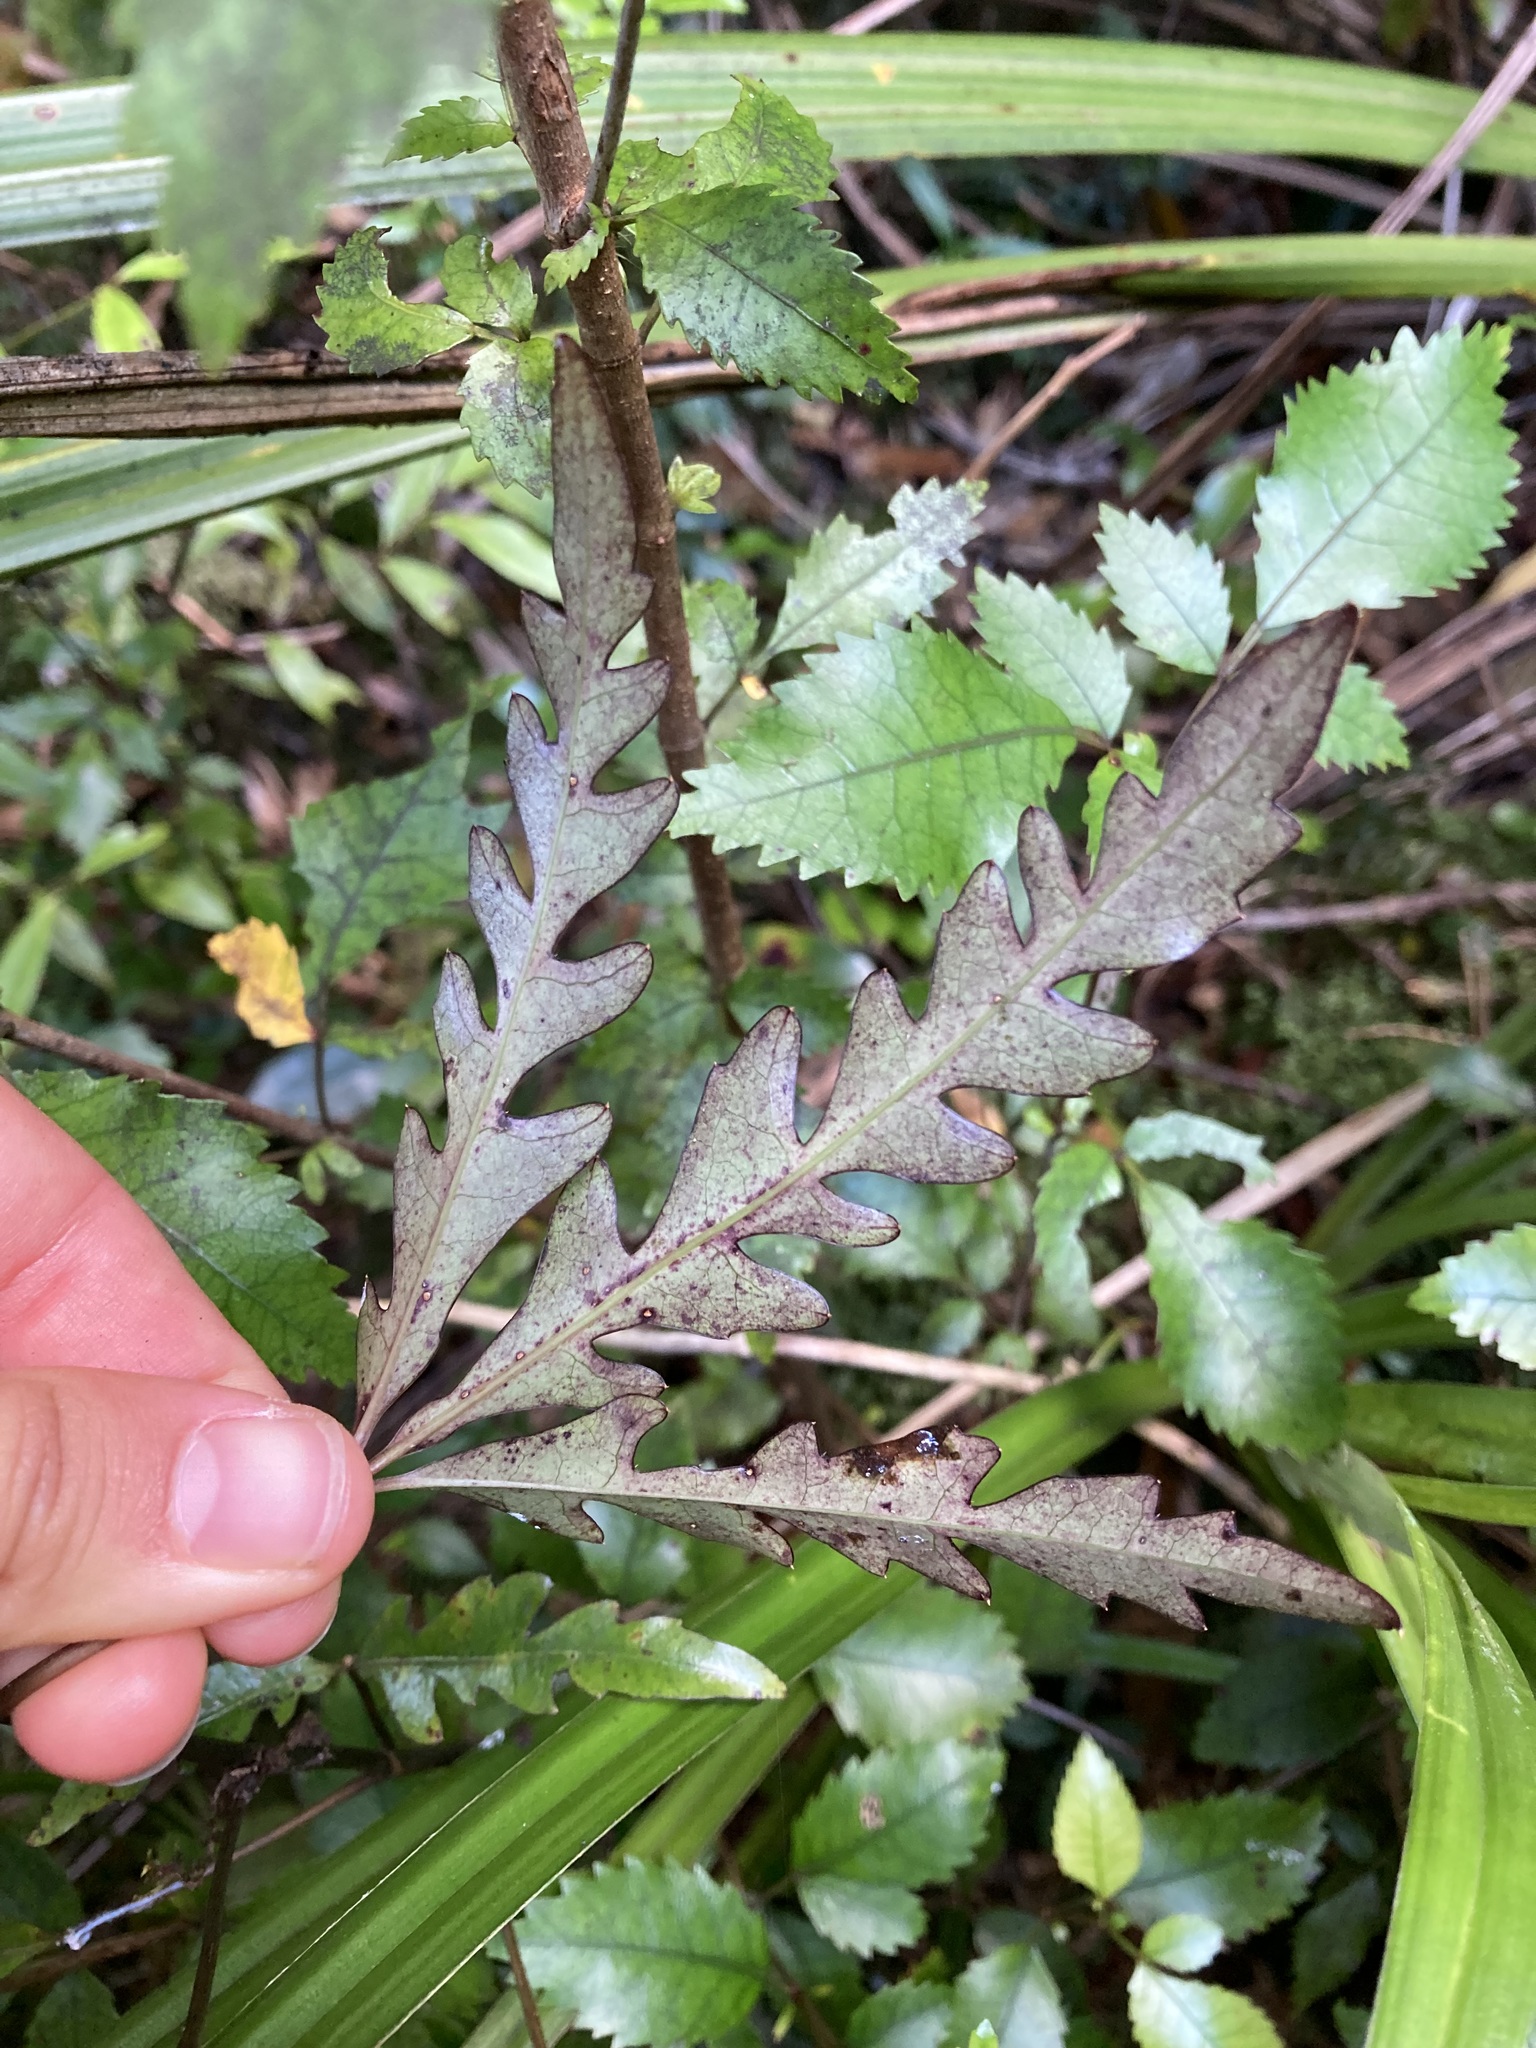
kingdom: Plantae
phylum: Tracheophyta
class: Magnoliopsida
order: Apiales
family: Araliaceae
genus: Raukaua
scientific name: Raukaua edgerleyi
